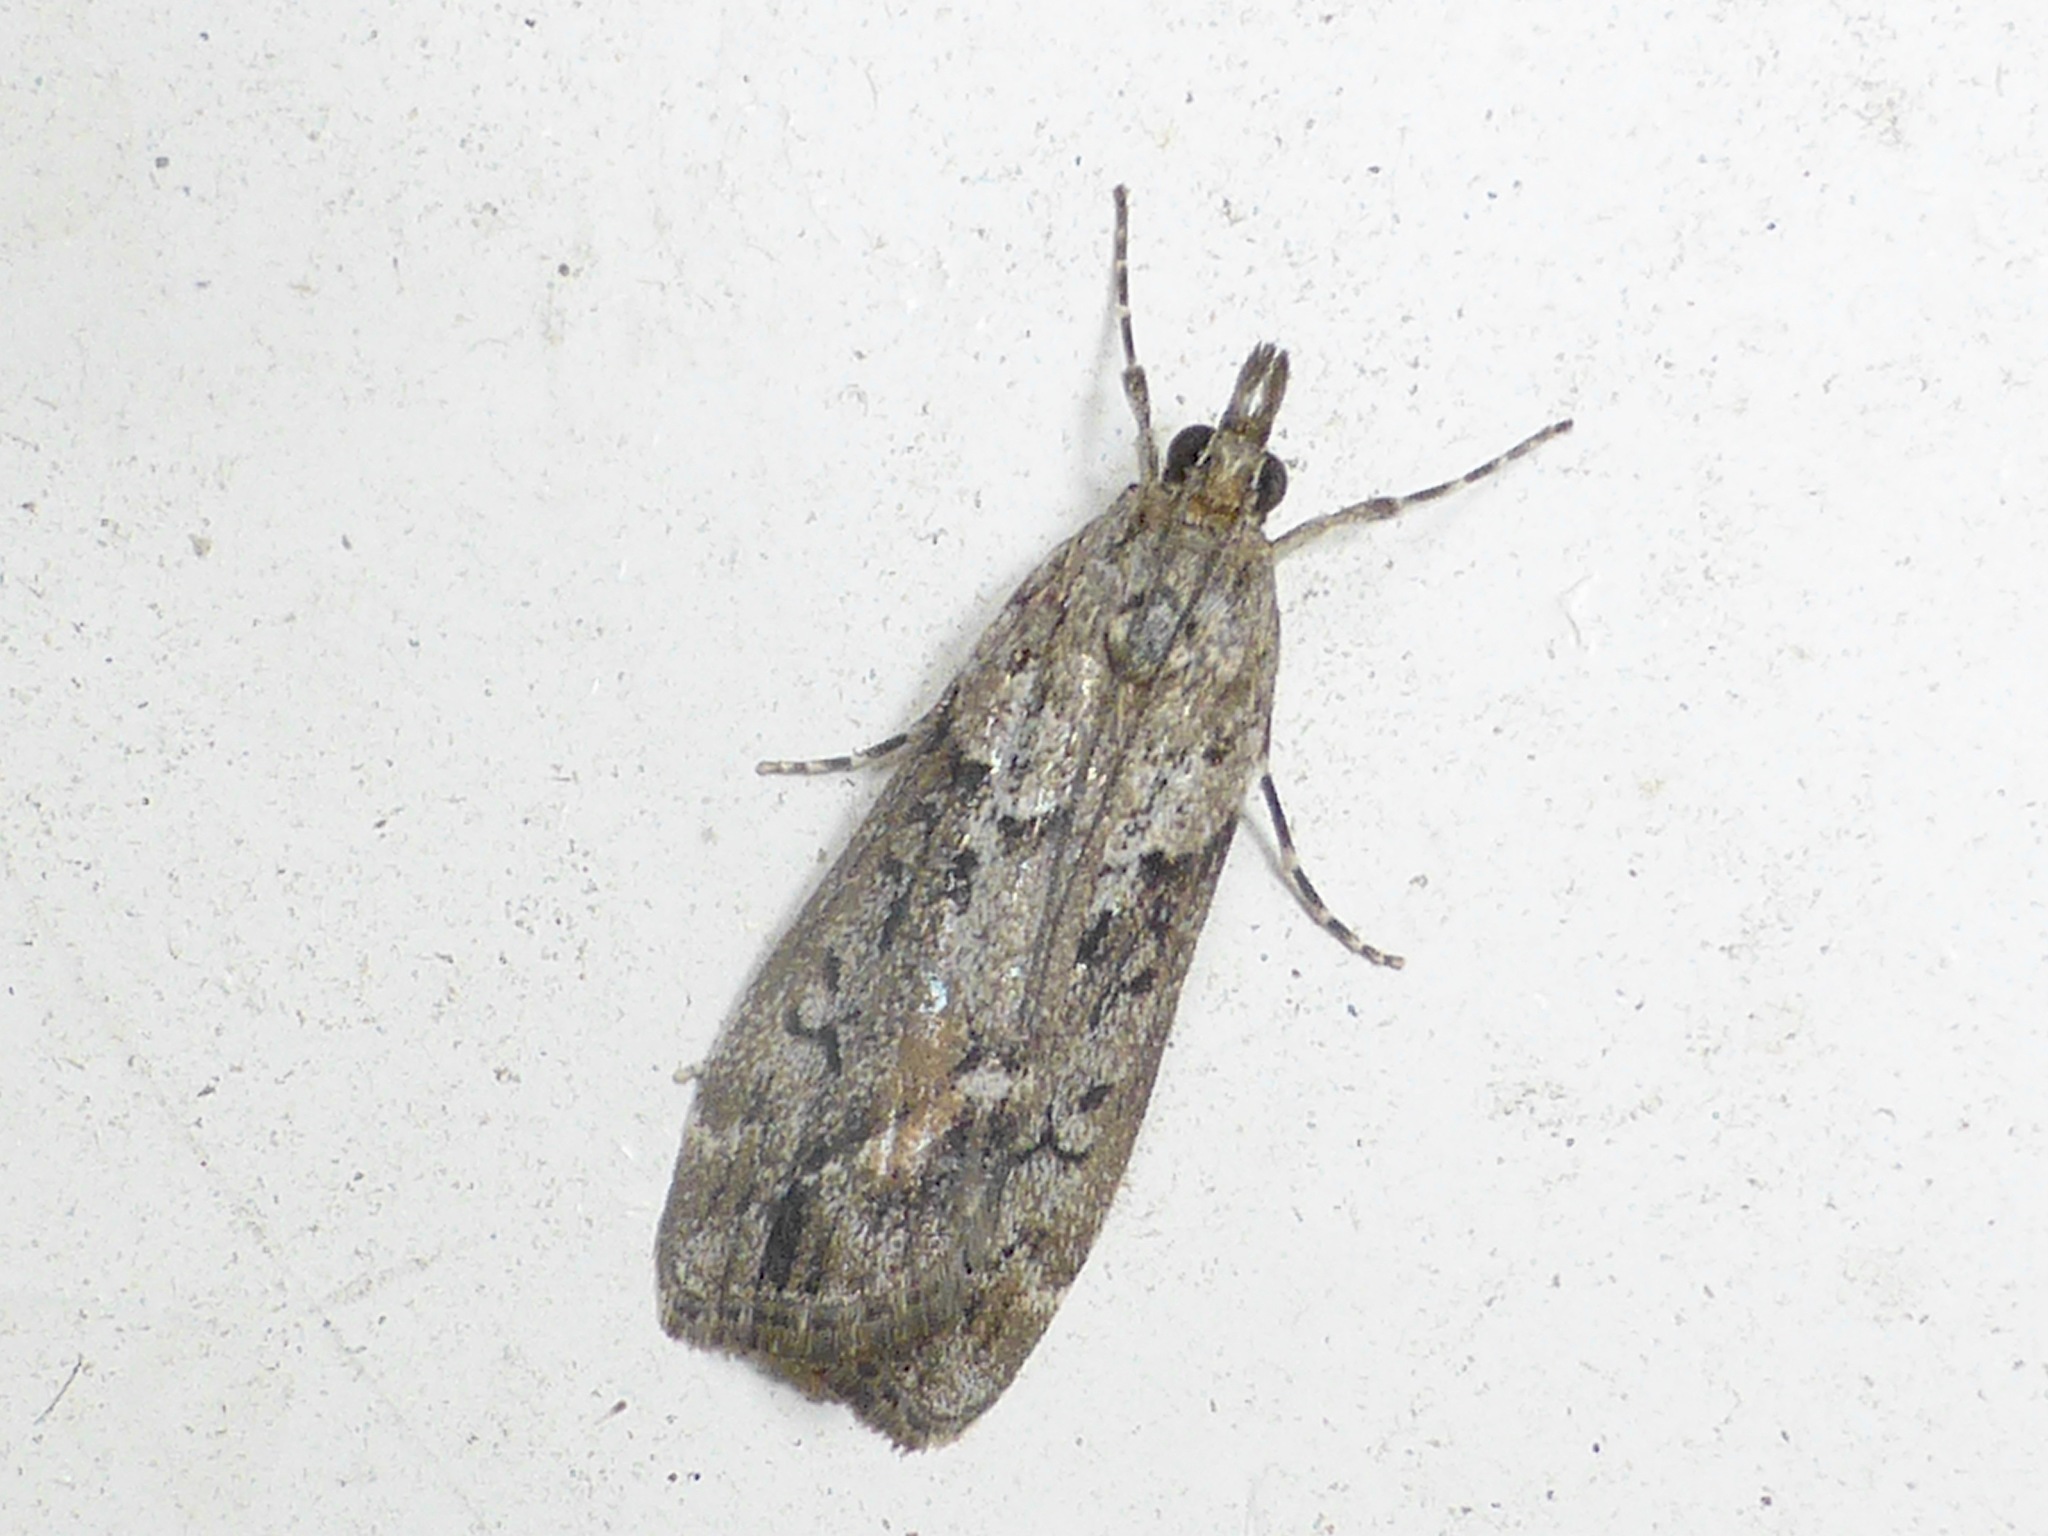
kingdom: Animalia
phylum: Arthropoda
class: Insecta
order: Lepidoptera
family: Crambidae
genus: Eudonia
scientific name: Eudonia submarginalis
